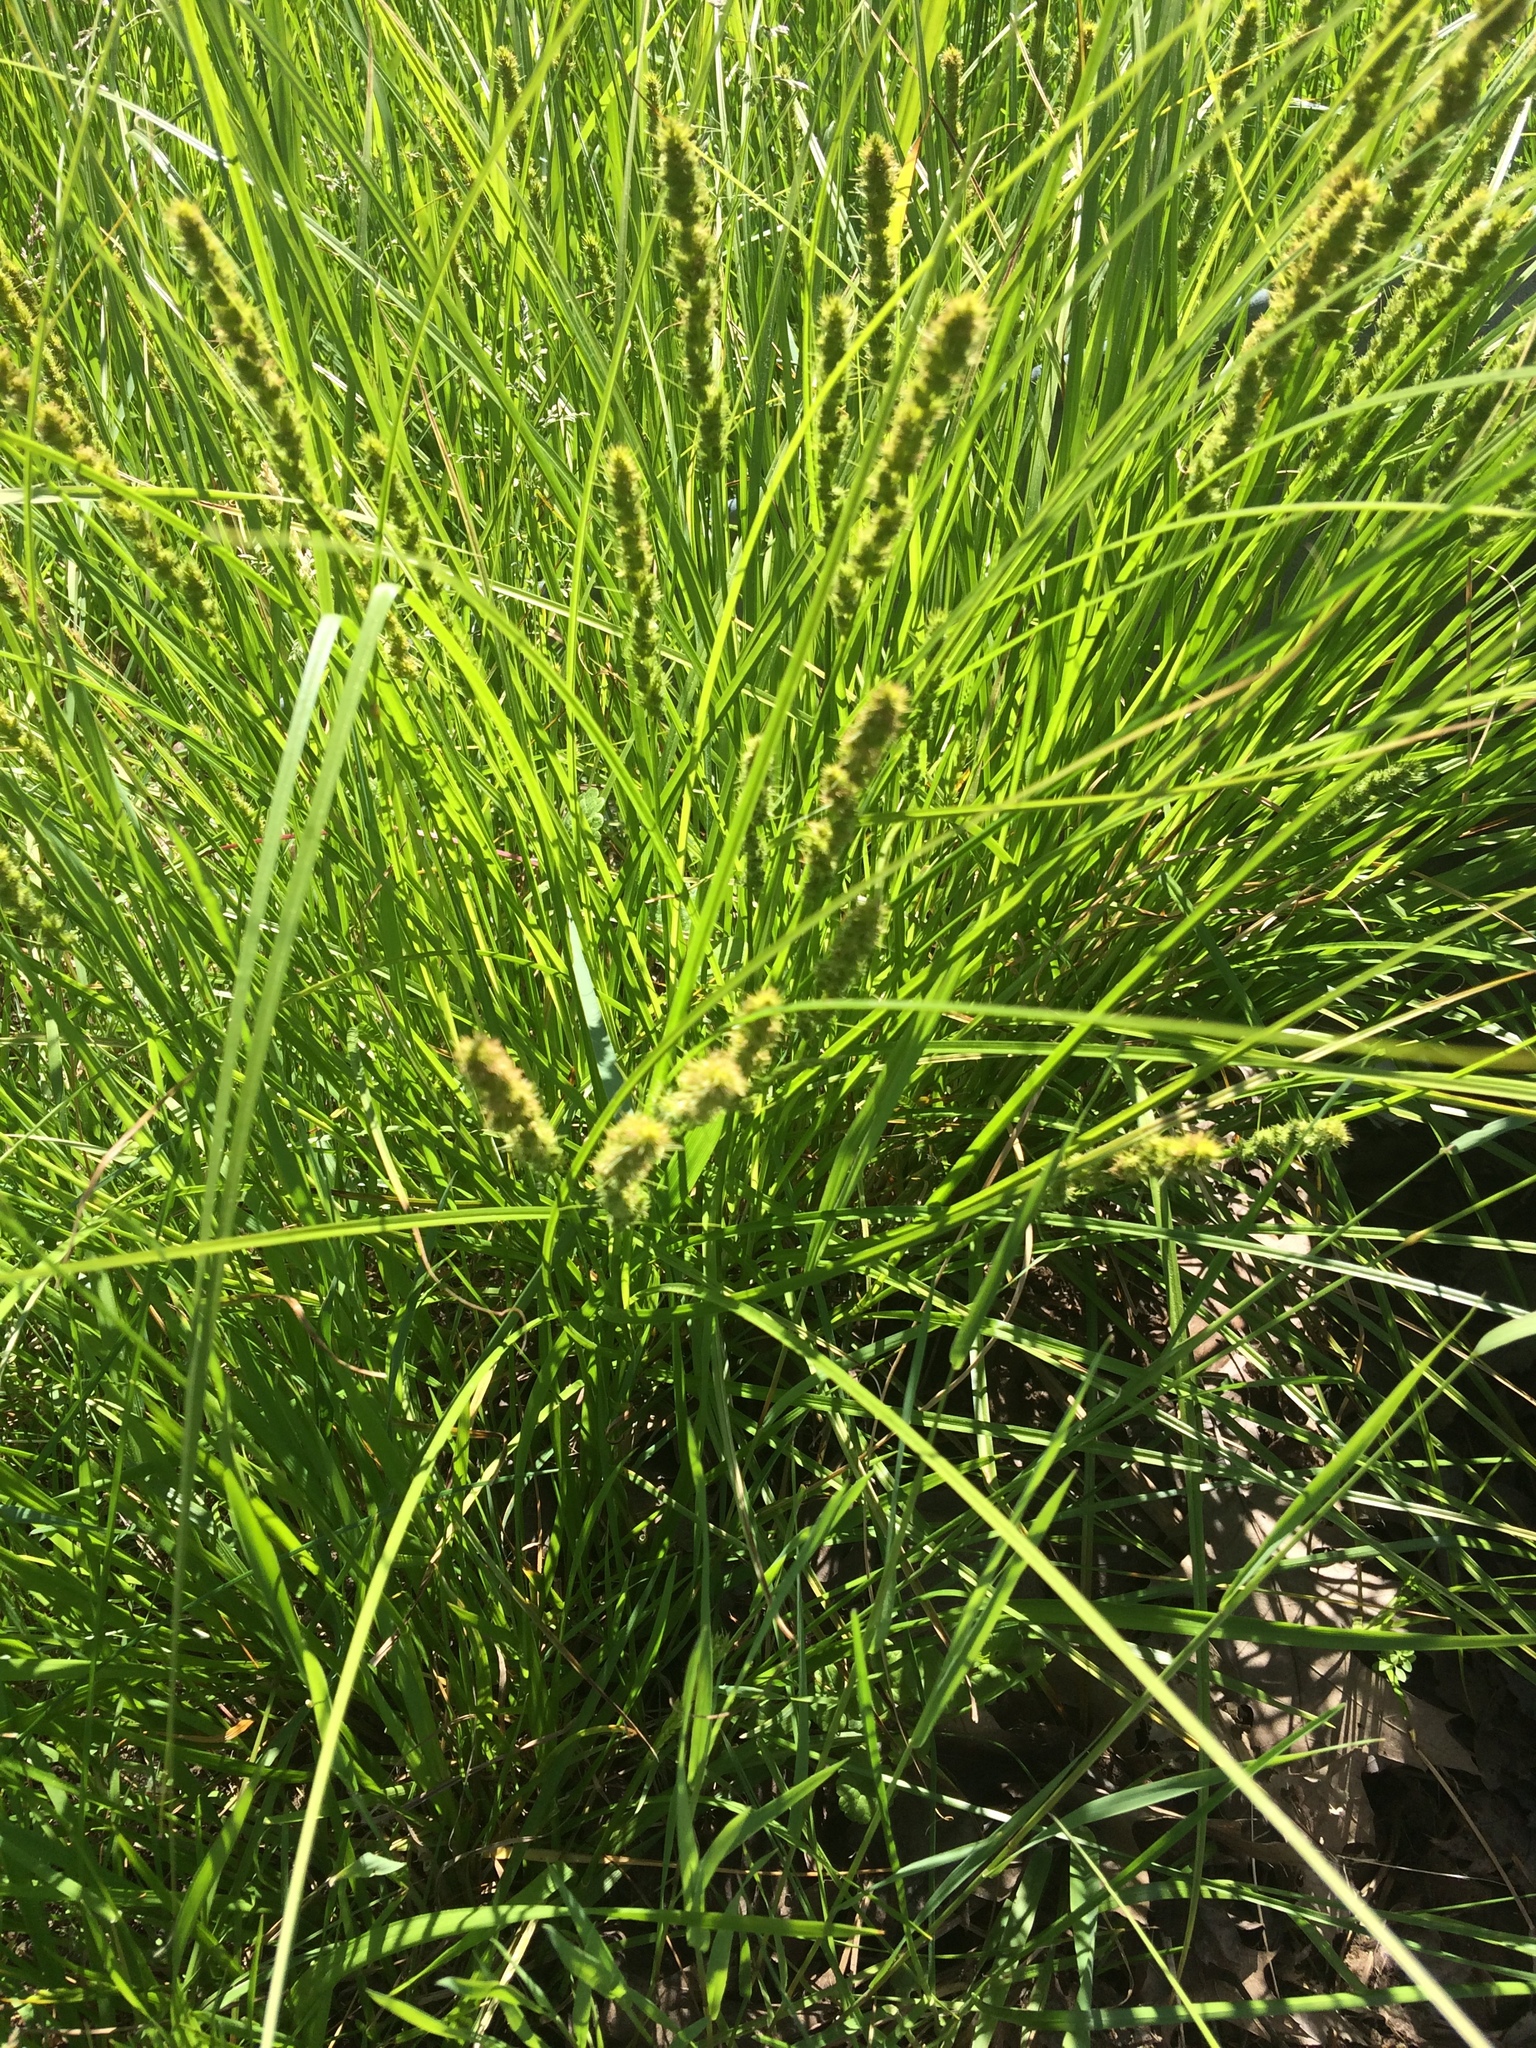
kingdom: Plantae
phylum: Tracheophyta
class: Liliopsida
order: Poales
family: Cyperaceae
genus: Carex
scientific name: Carex vulpinoidea
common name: American fox-sedge
